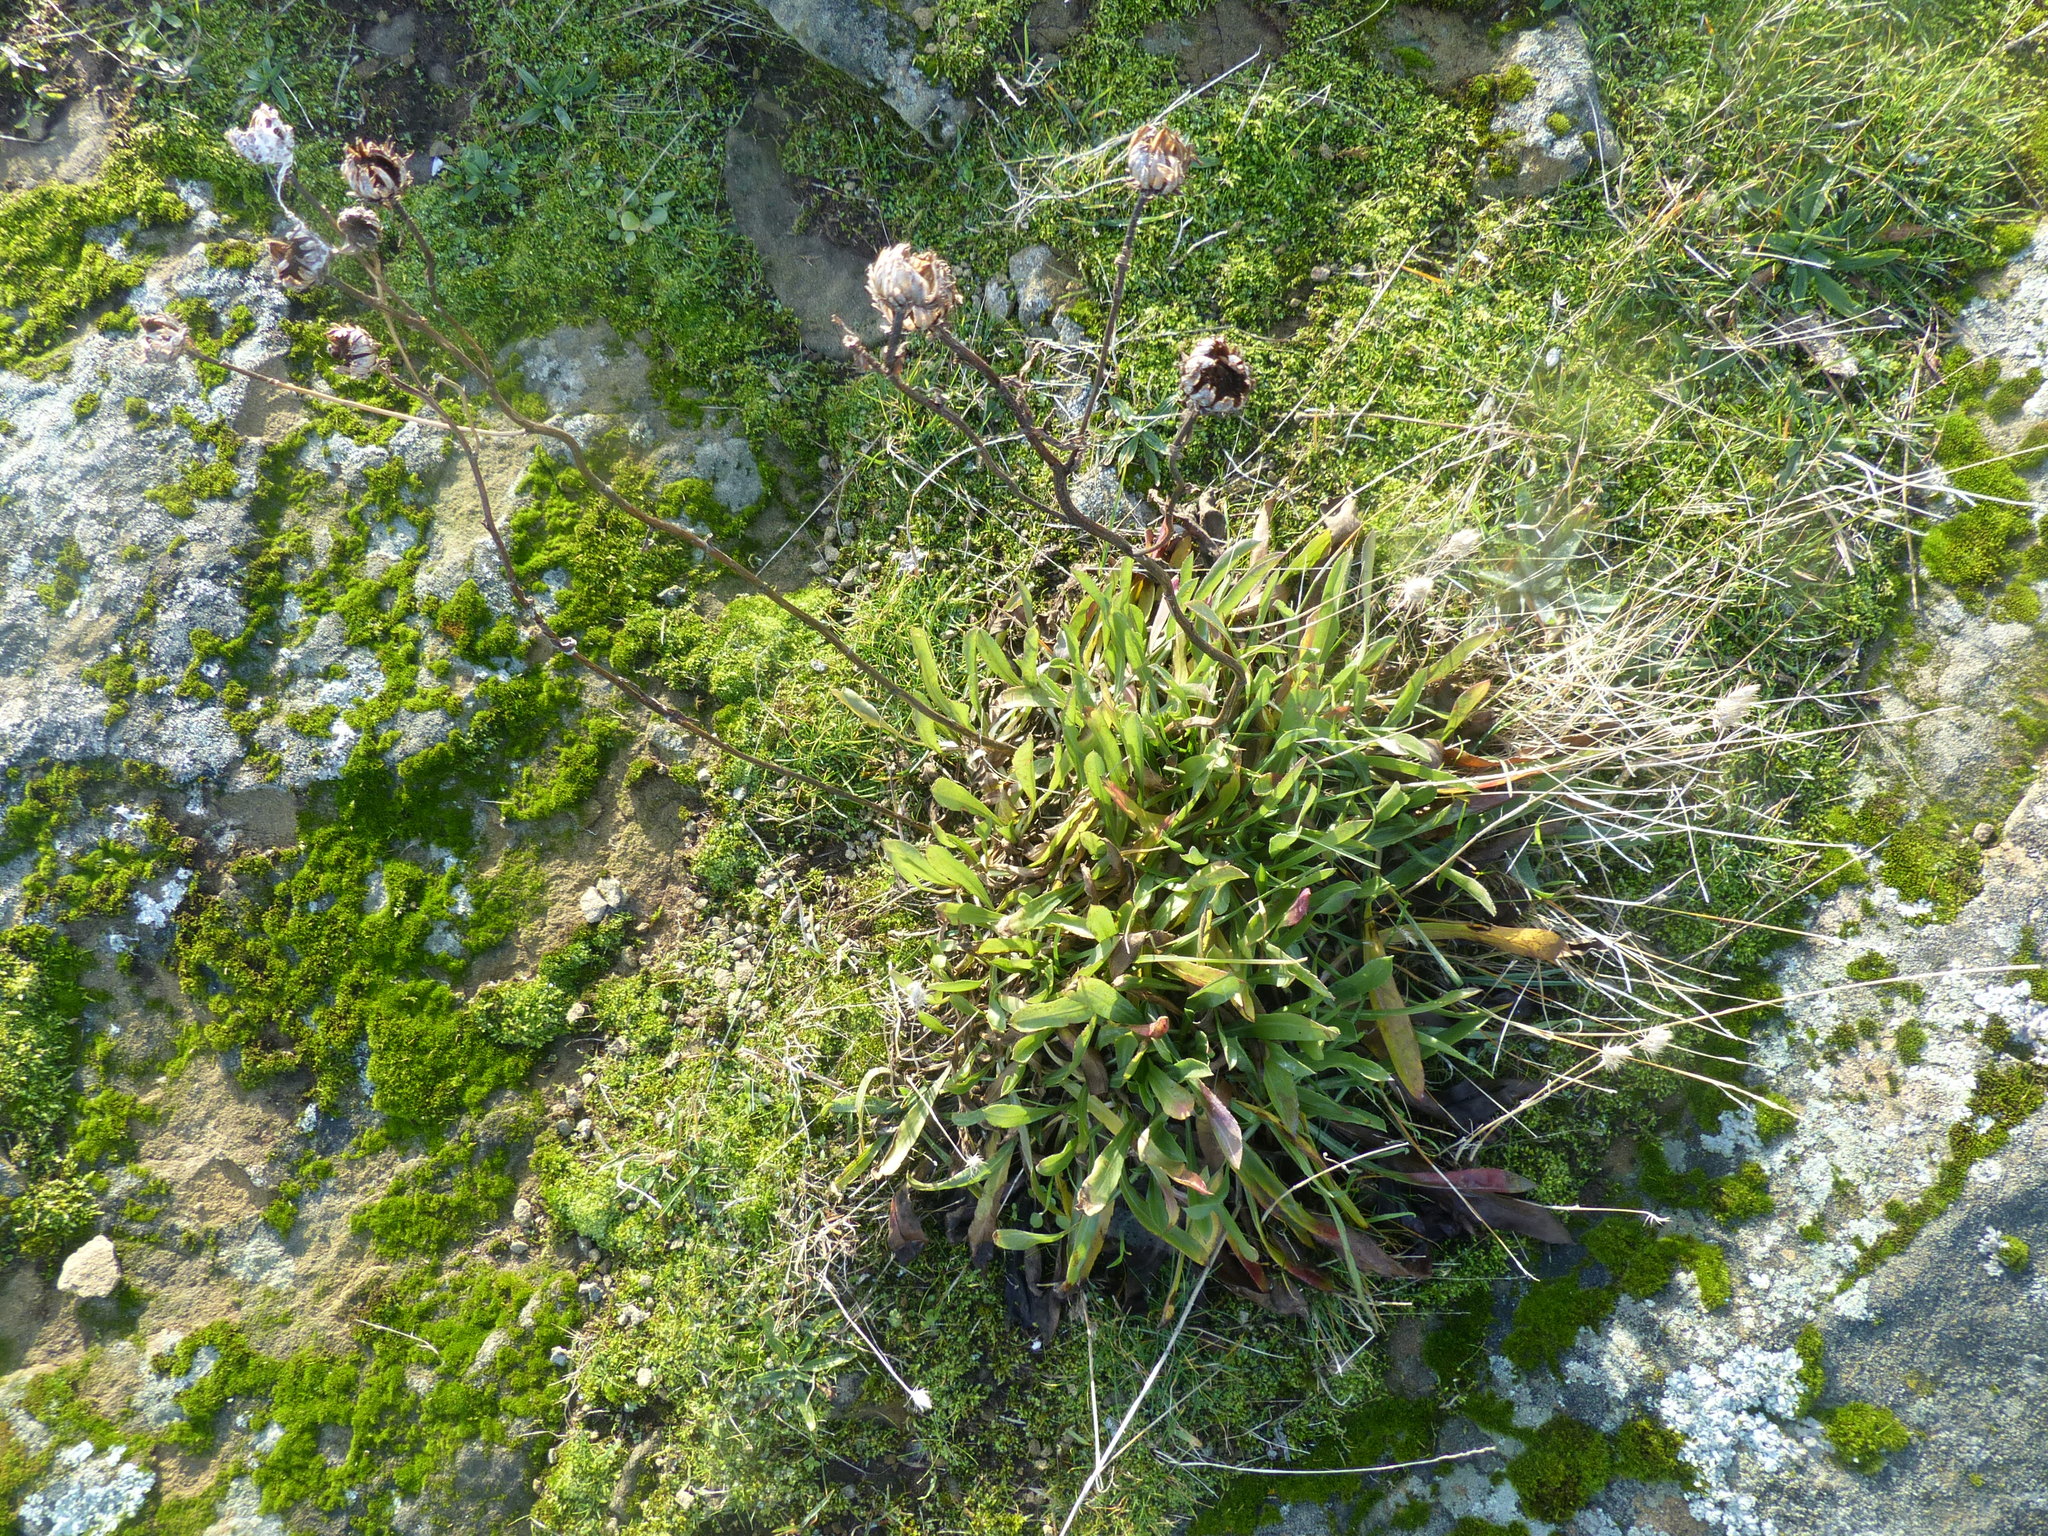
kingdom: Plantae
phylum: Tracheophyta
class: Magnoliopsida
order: Asterales
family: Asteraceae
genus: Grindelia
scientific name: Grindelia hirsutula
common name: Hairy gumweed
